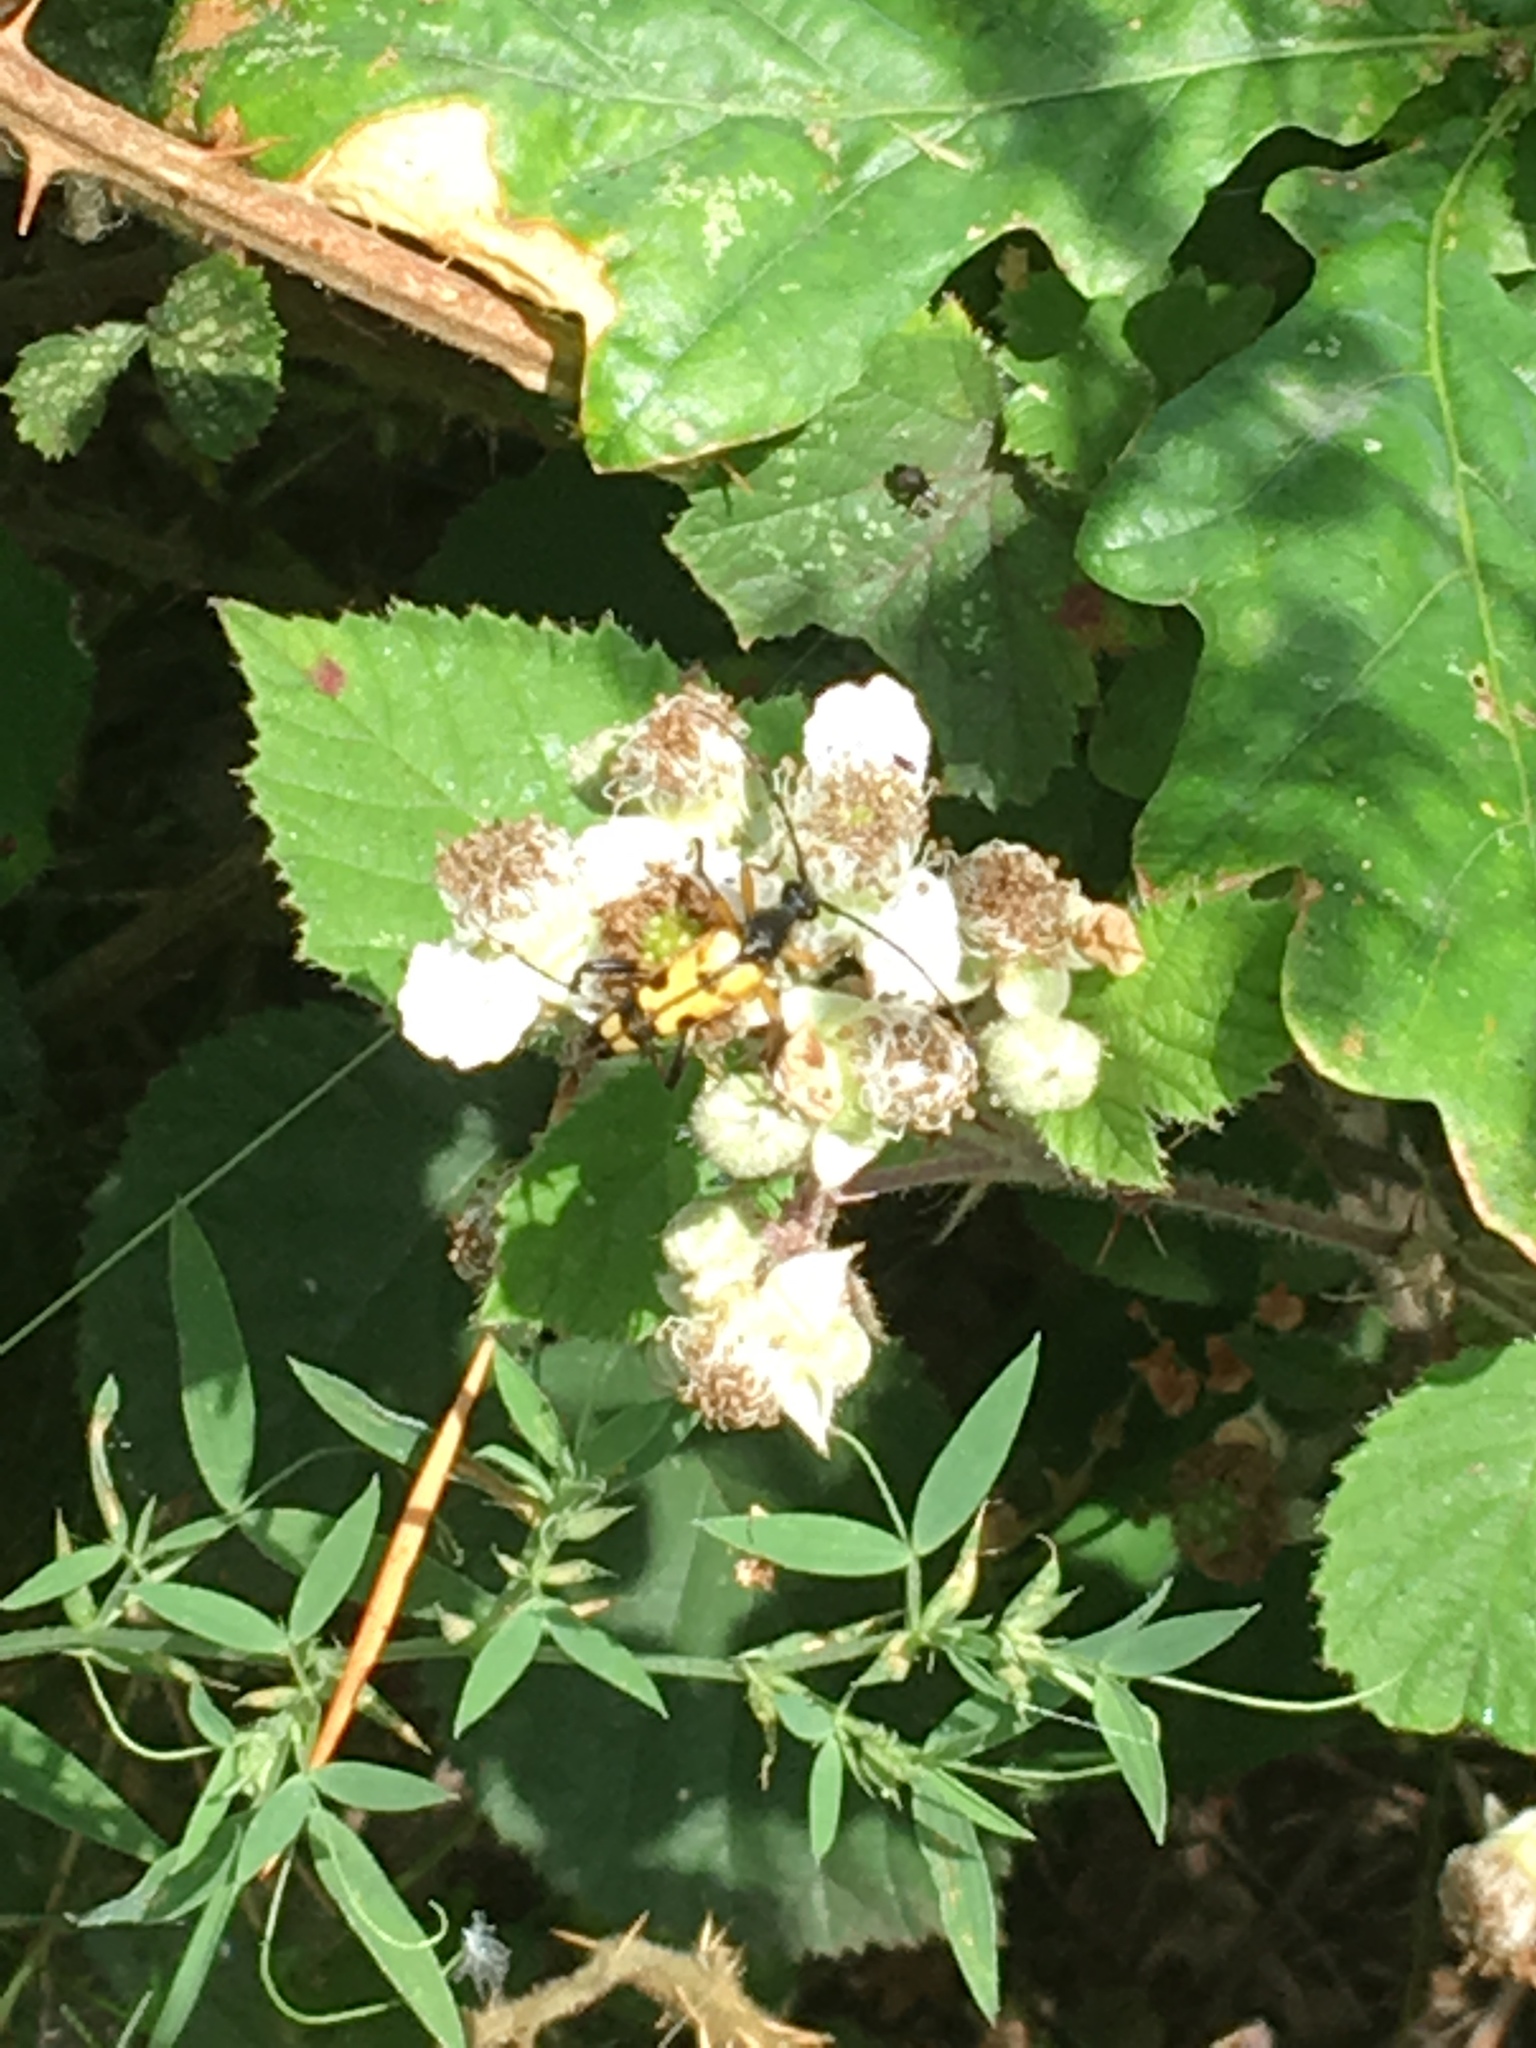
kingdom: Animalia
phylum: Arthropoda
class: Insecta
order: Coleoptera
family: Cerambycidae
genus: Rutpela
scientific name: Rutpela maculata
